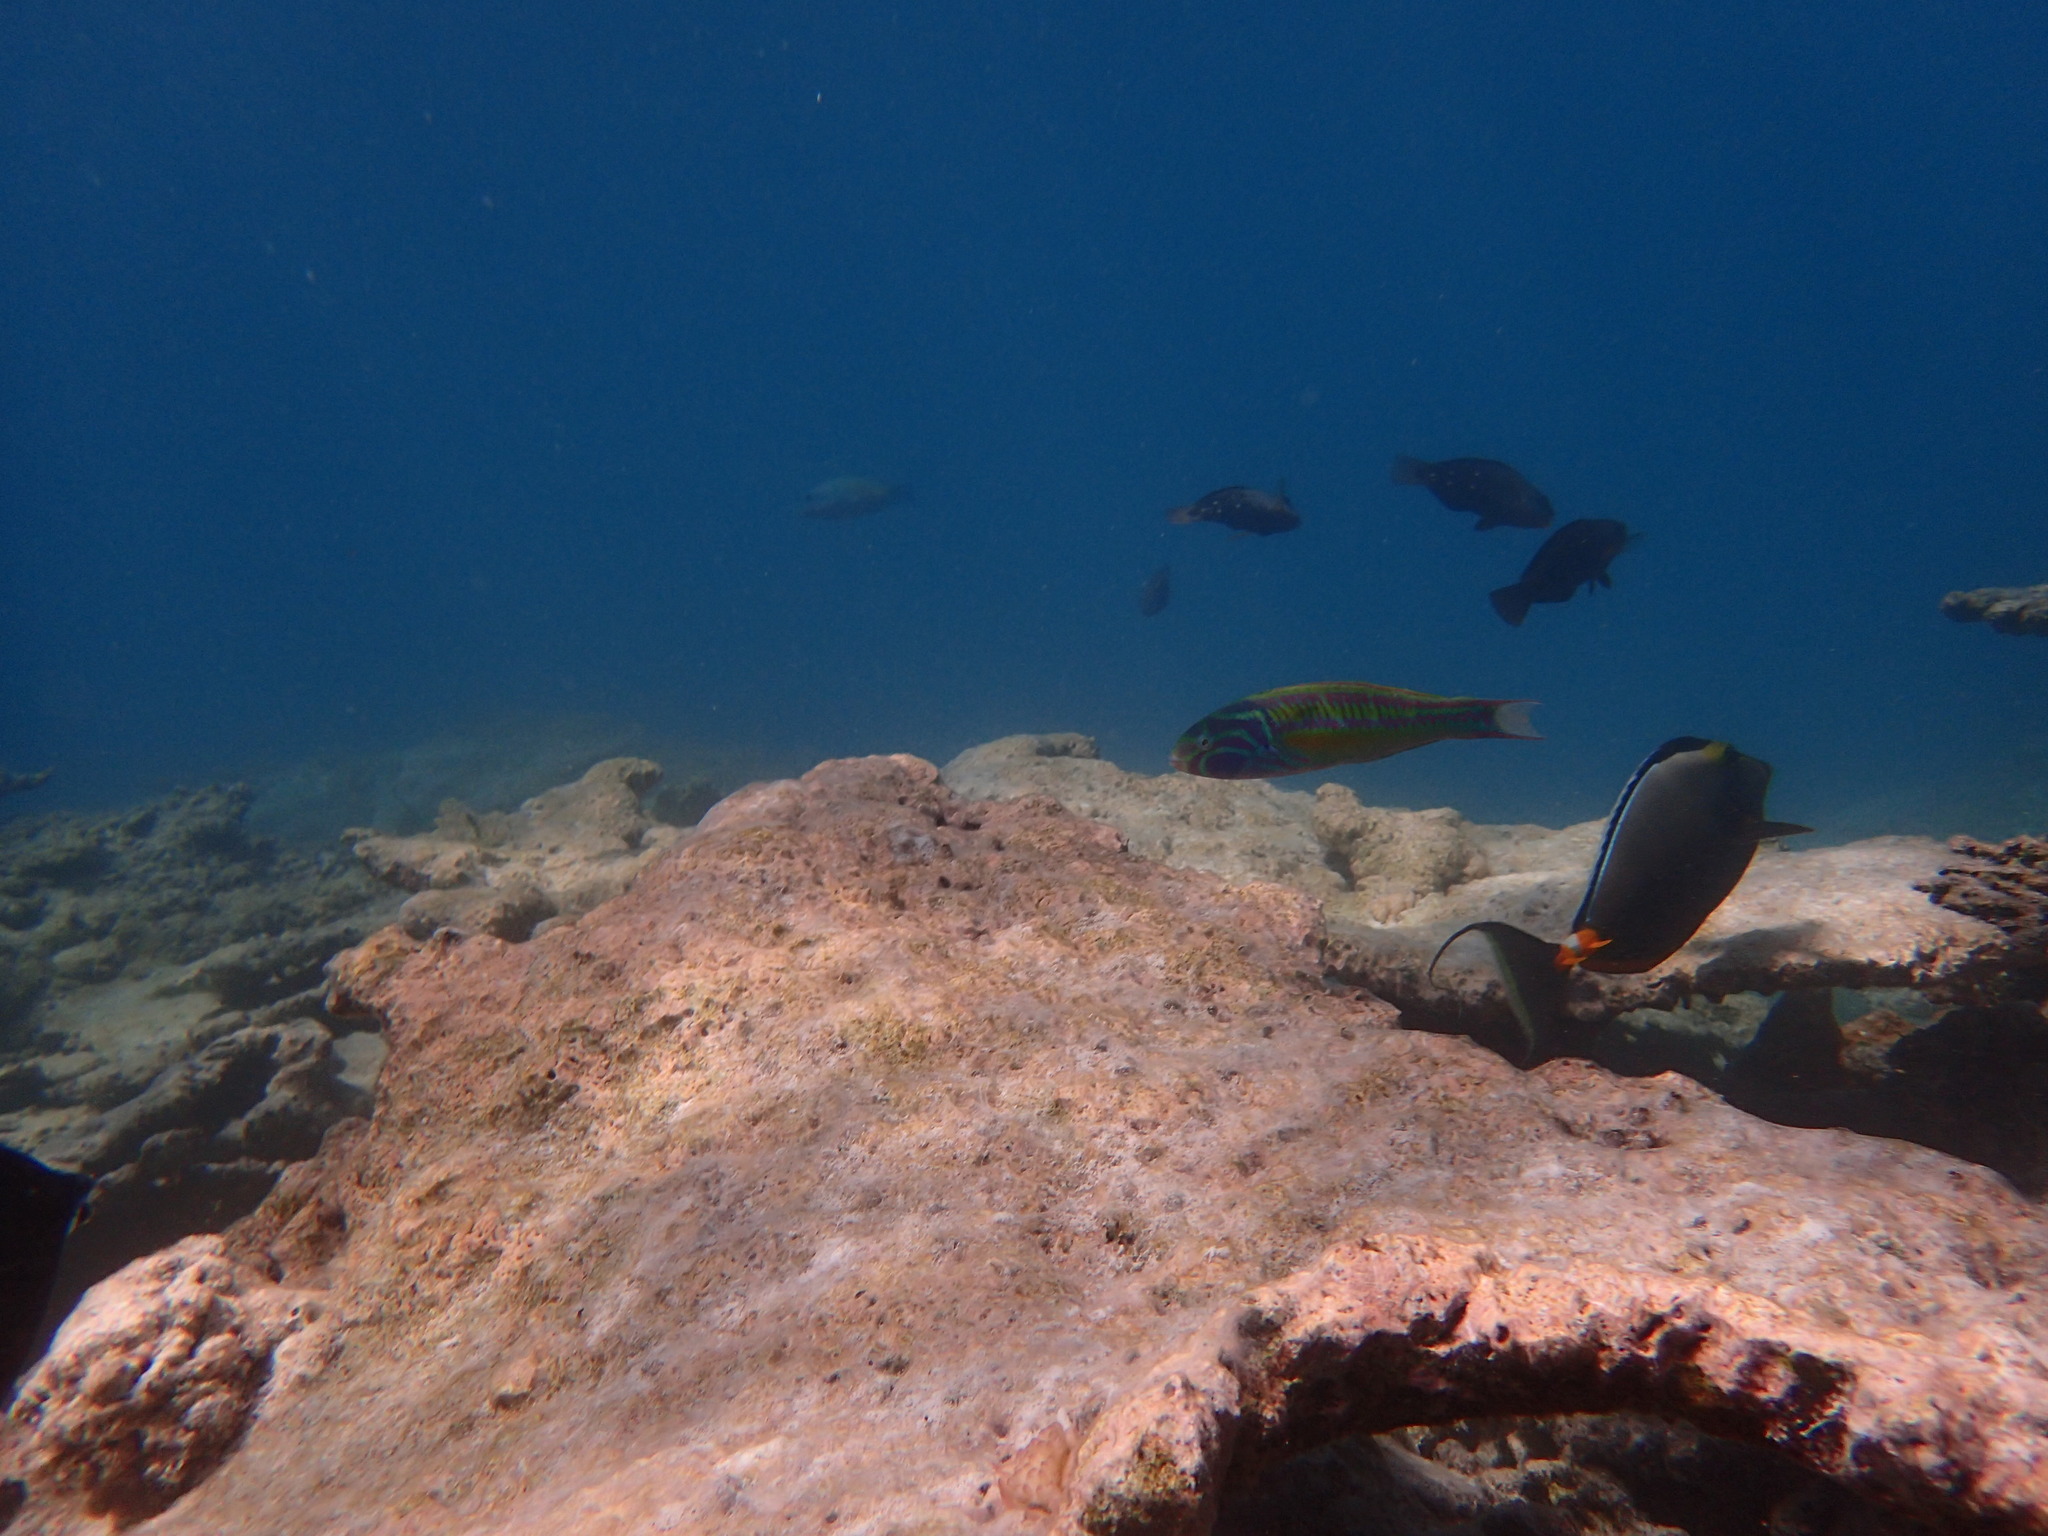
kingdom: Animalia
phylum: Chordata
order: Perciformes
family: Labridae
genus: Thalassoma
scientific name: Thalassoma quinquevittatum
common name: Five striped surge wrasse
